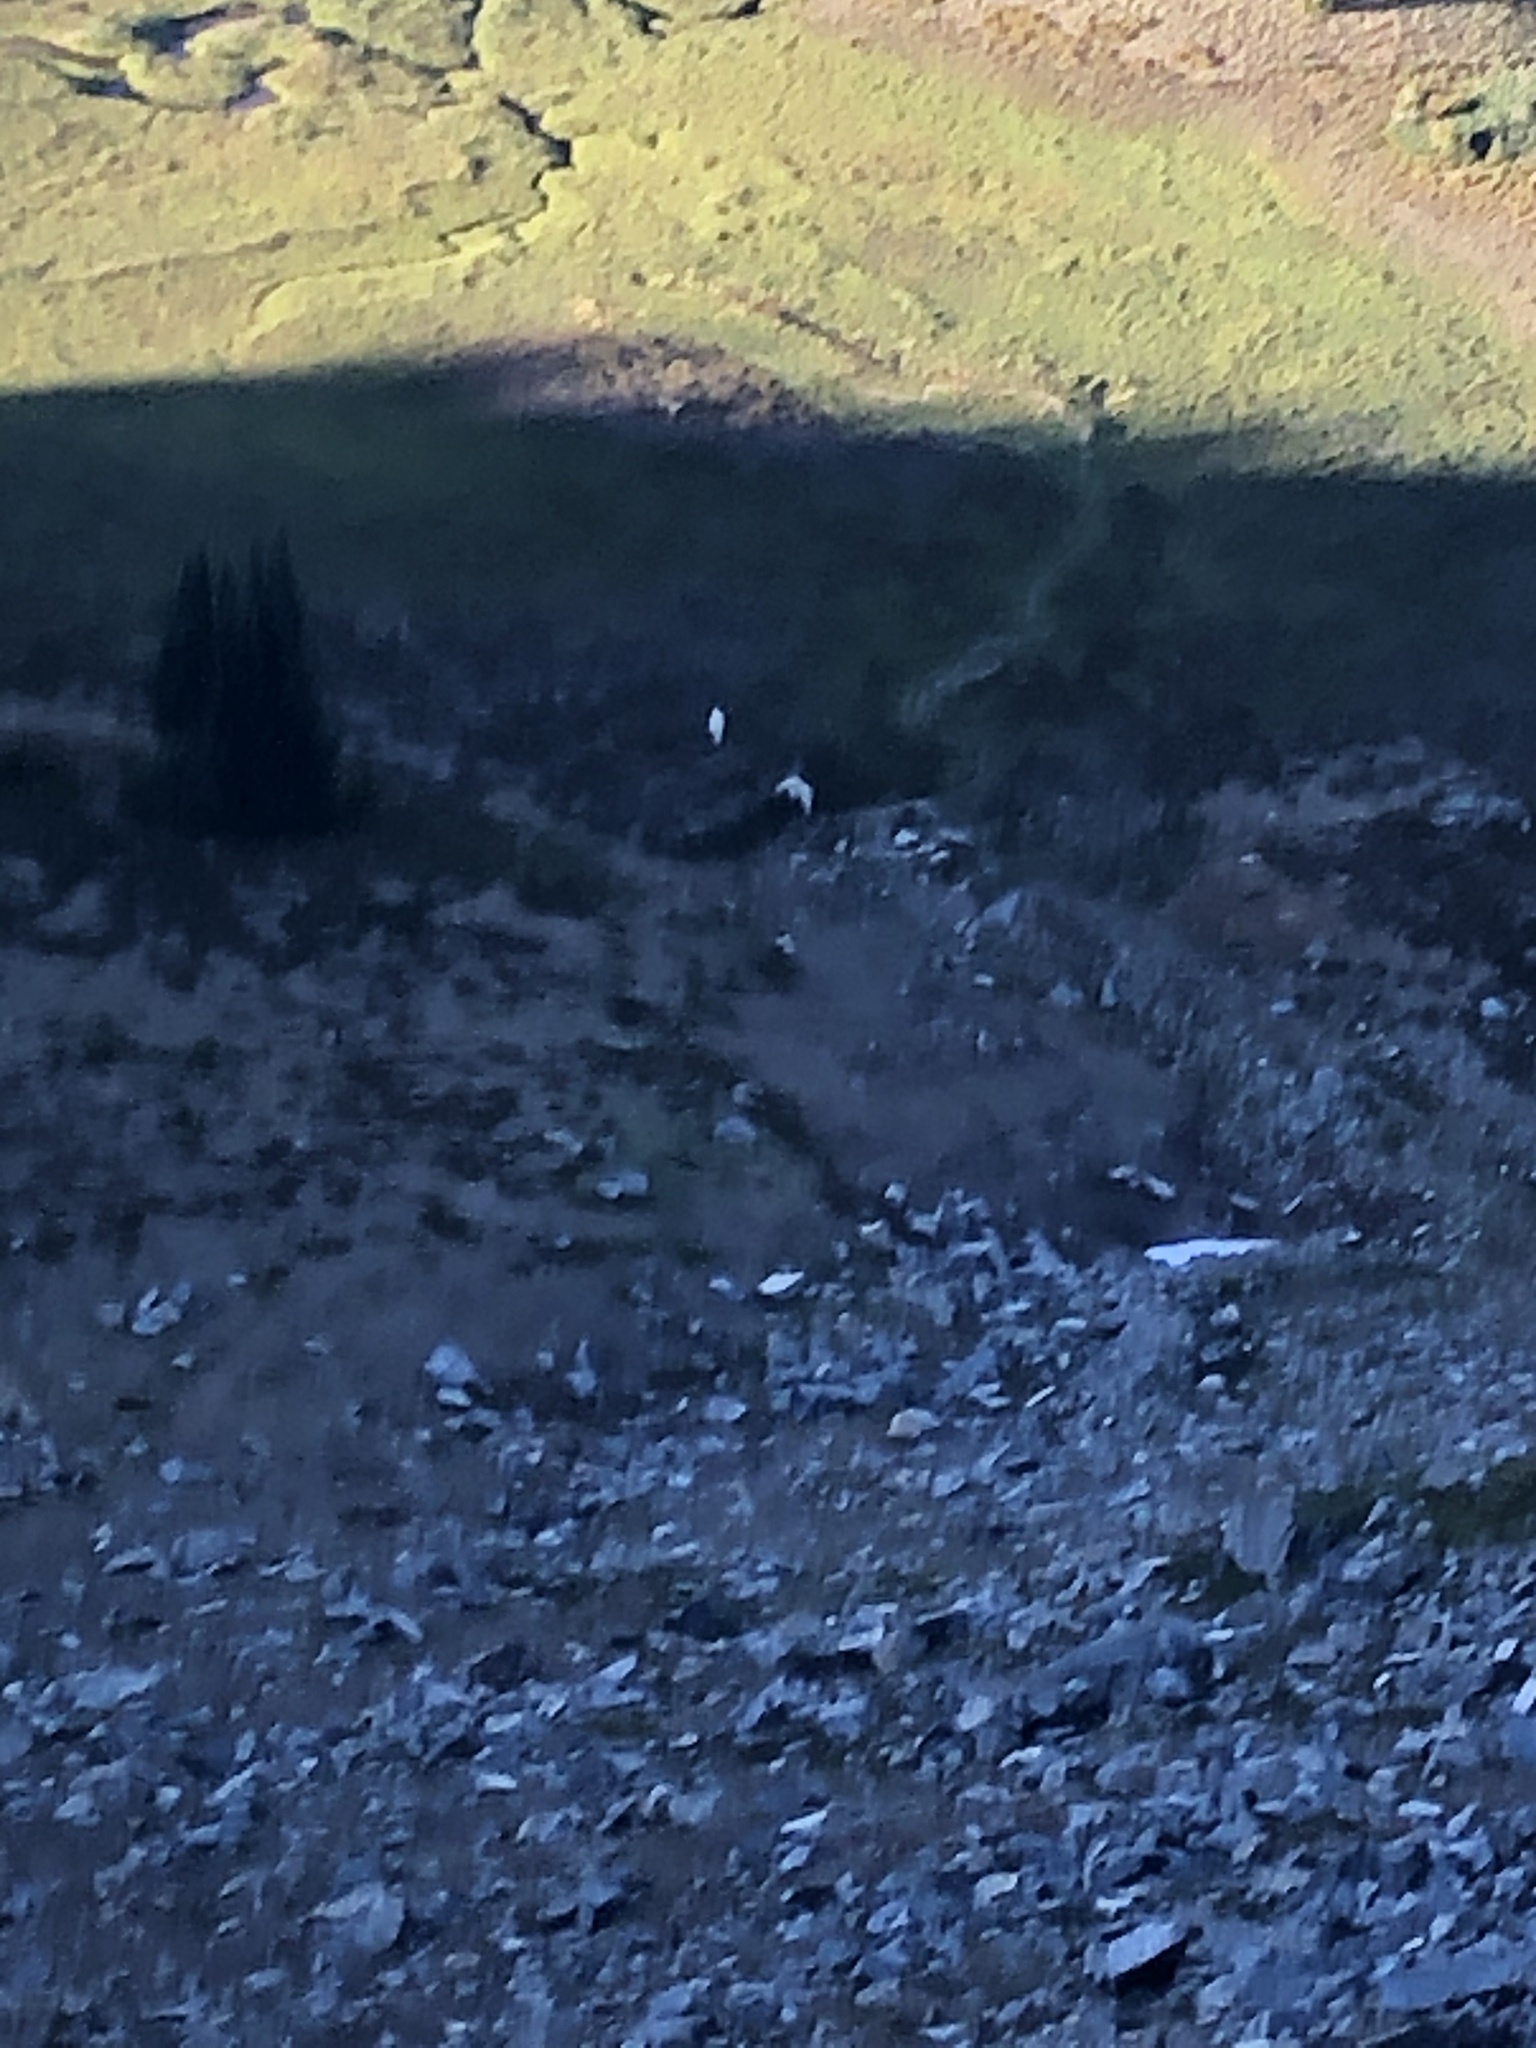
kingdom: Animalia
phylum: Chordata
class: Mammalia
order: Artiodactyla
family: Bovidae
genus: Oreamnos
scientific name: Oreamnos americanus
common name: Mountain goat
